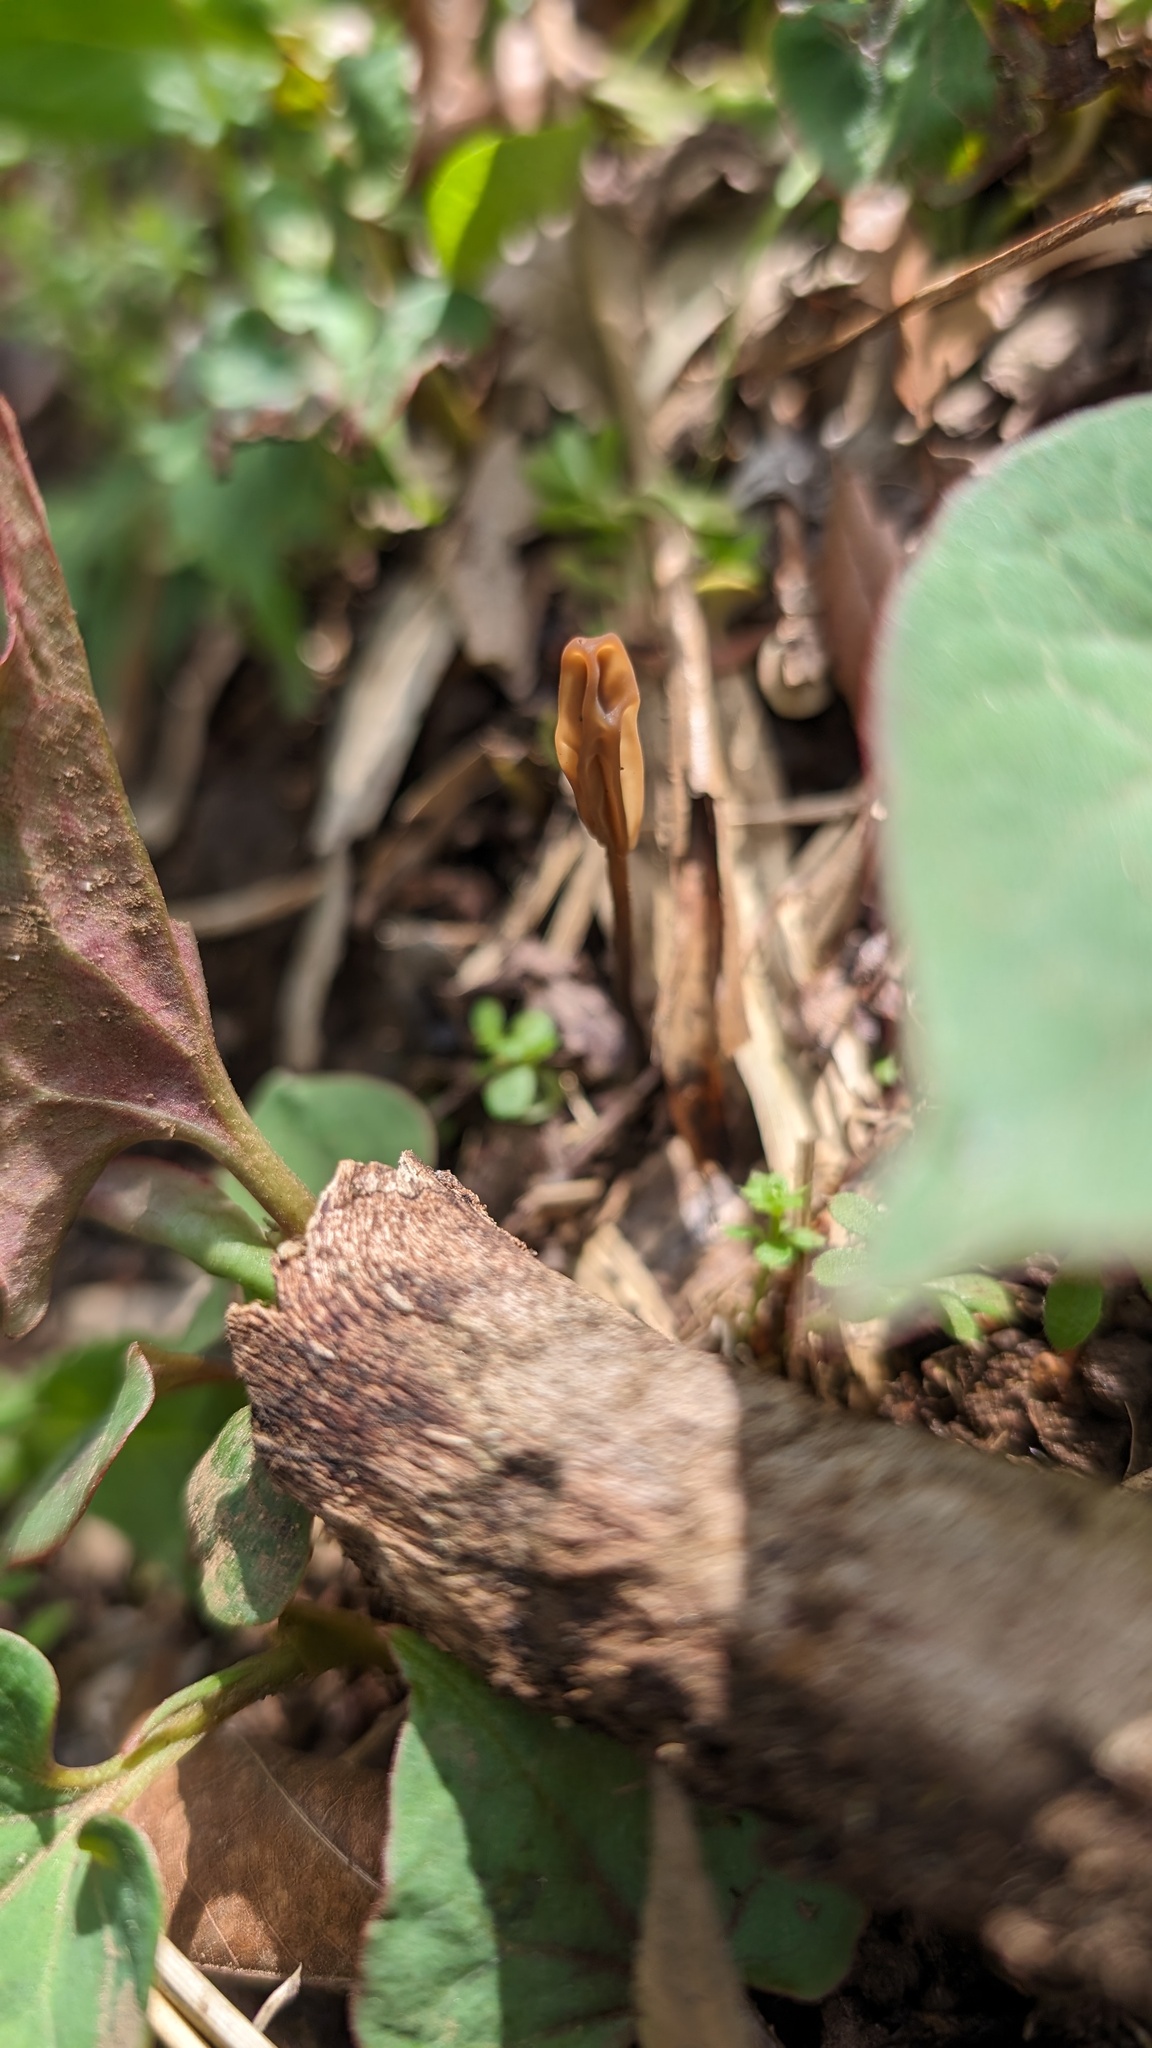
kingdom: Fungi
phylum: Ascomycota
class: Leotiomycetes
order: Helotiales
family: Sclerotiniaceae
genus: Scleromitrula
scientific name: Scleromitrula shiraiana
